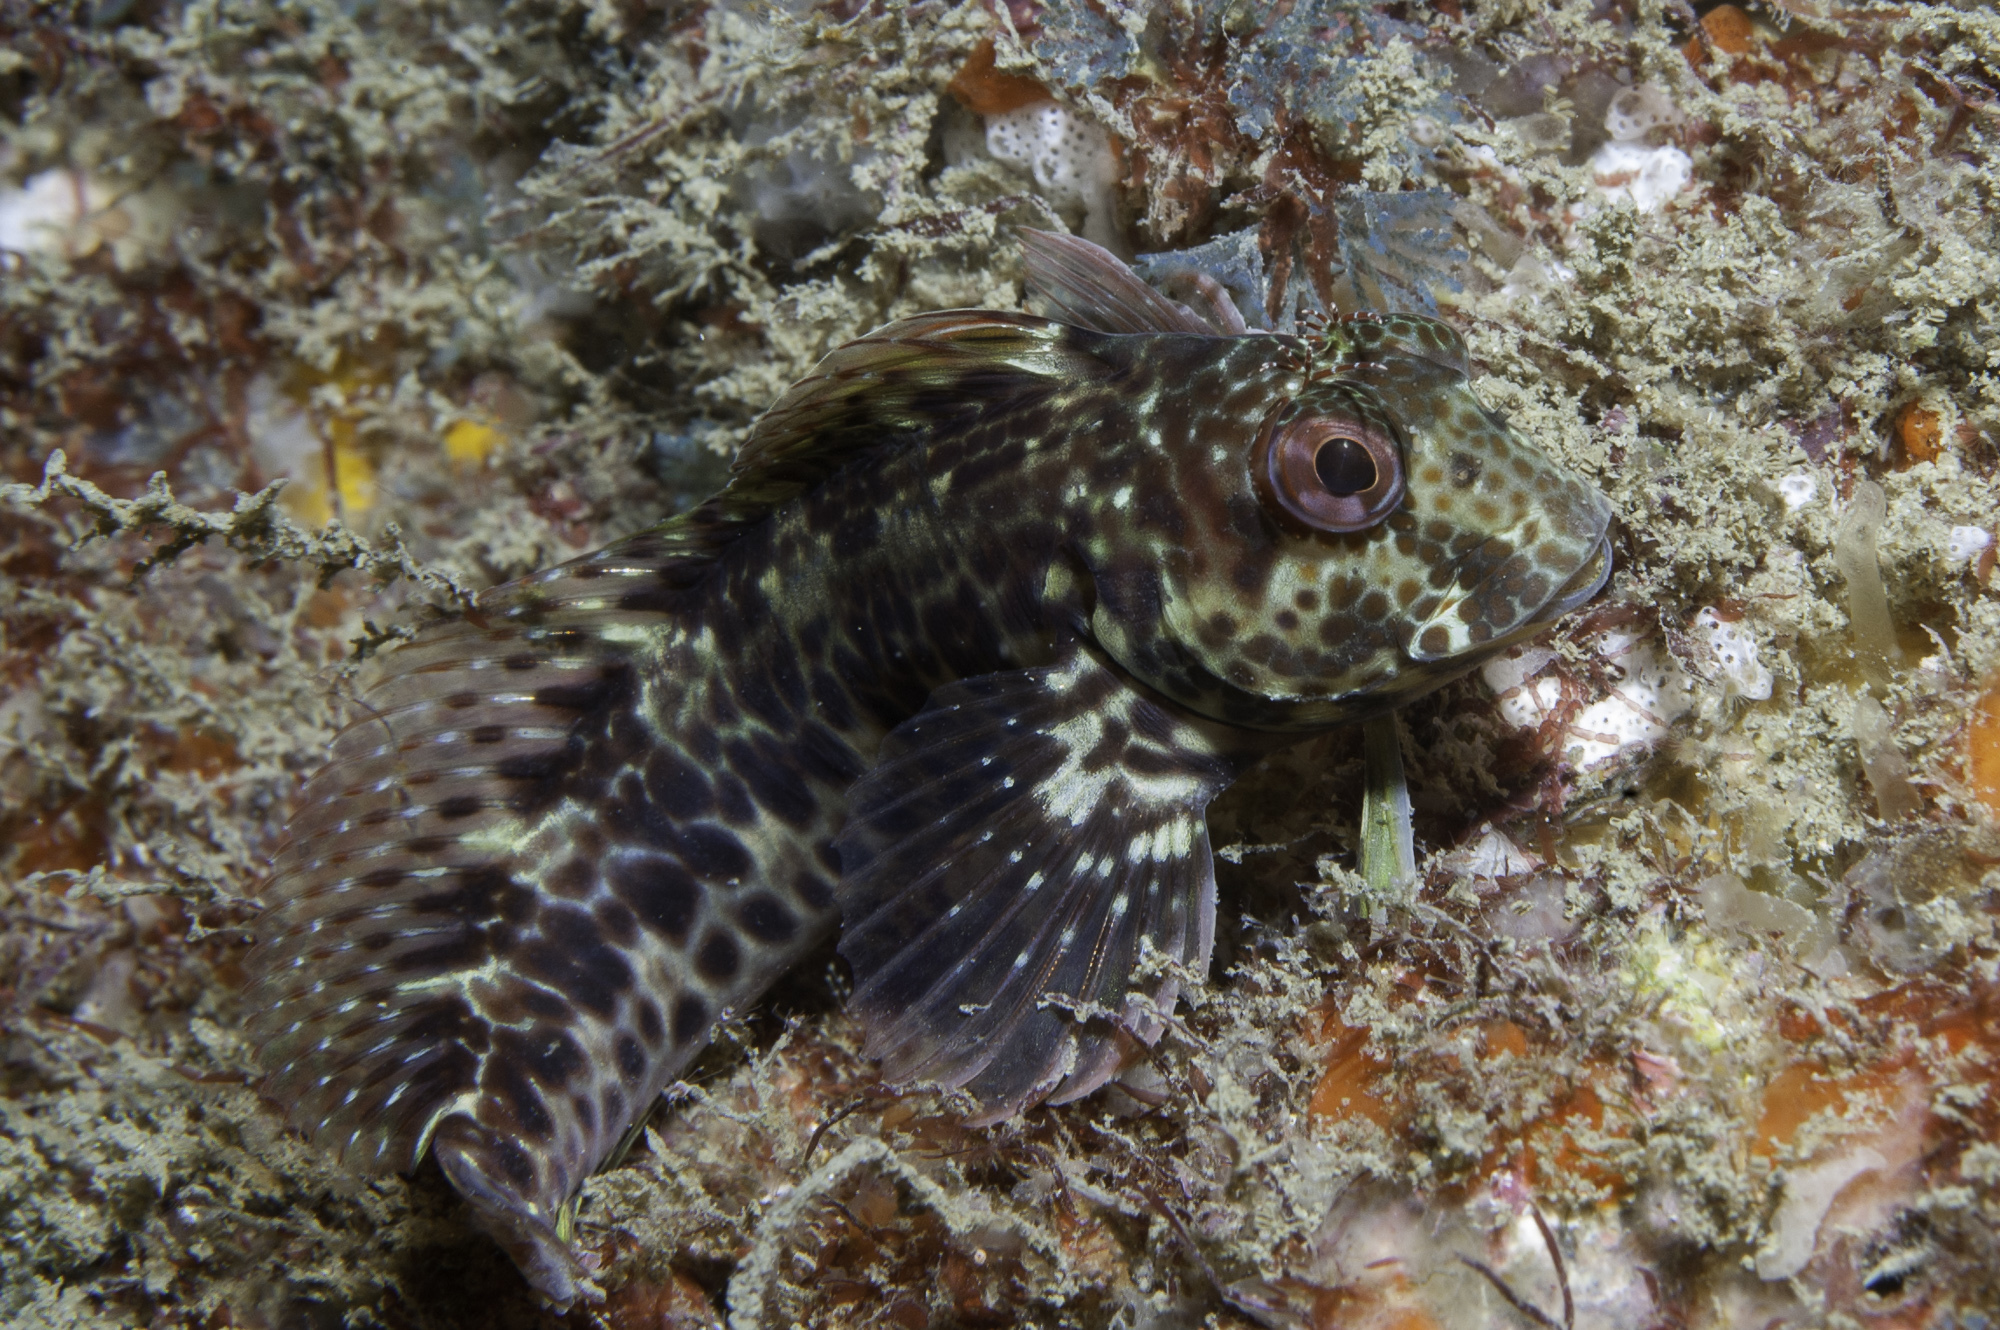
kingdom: Animalia
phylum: Chordata
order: Perciformes
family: Blenniidae
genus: Parablennius
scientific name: Parablennius pilicornis
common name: Ringneck blenny
